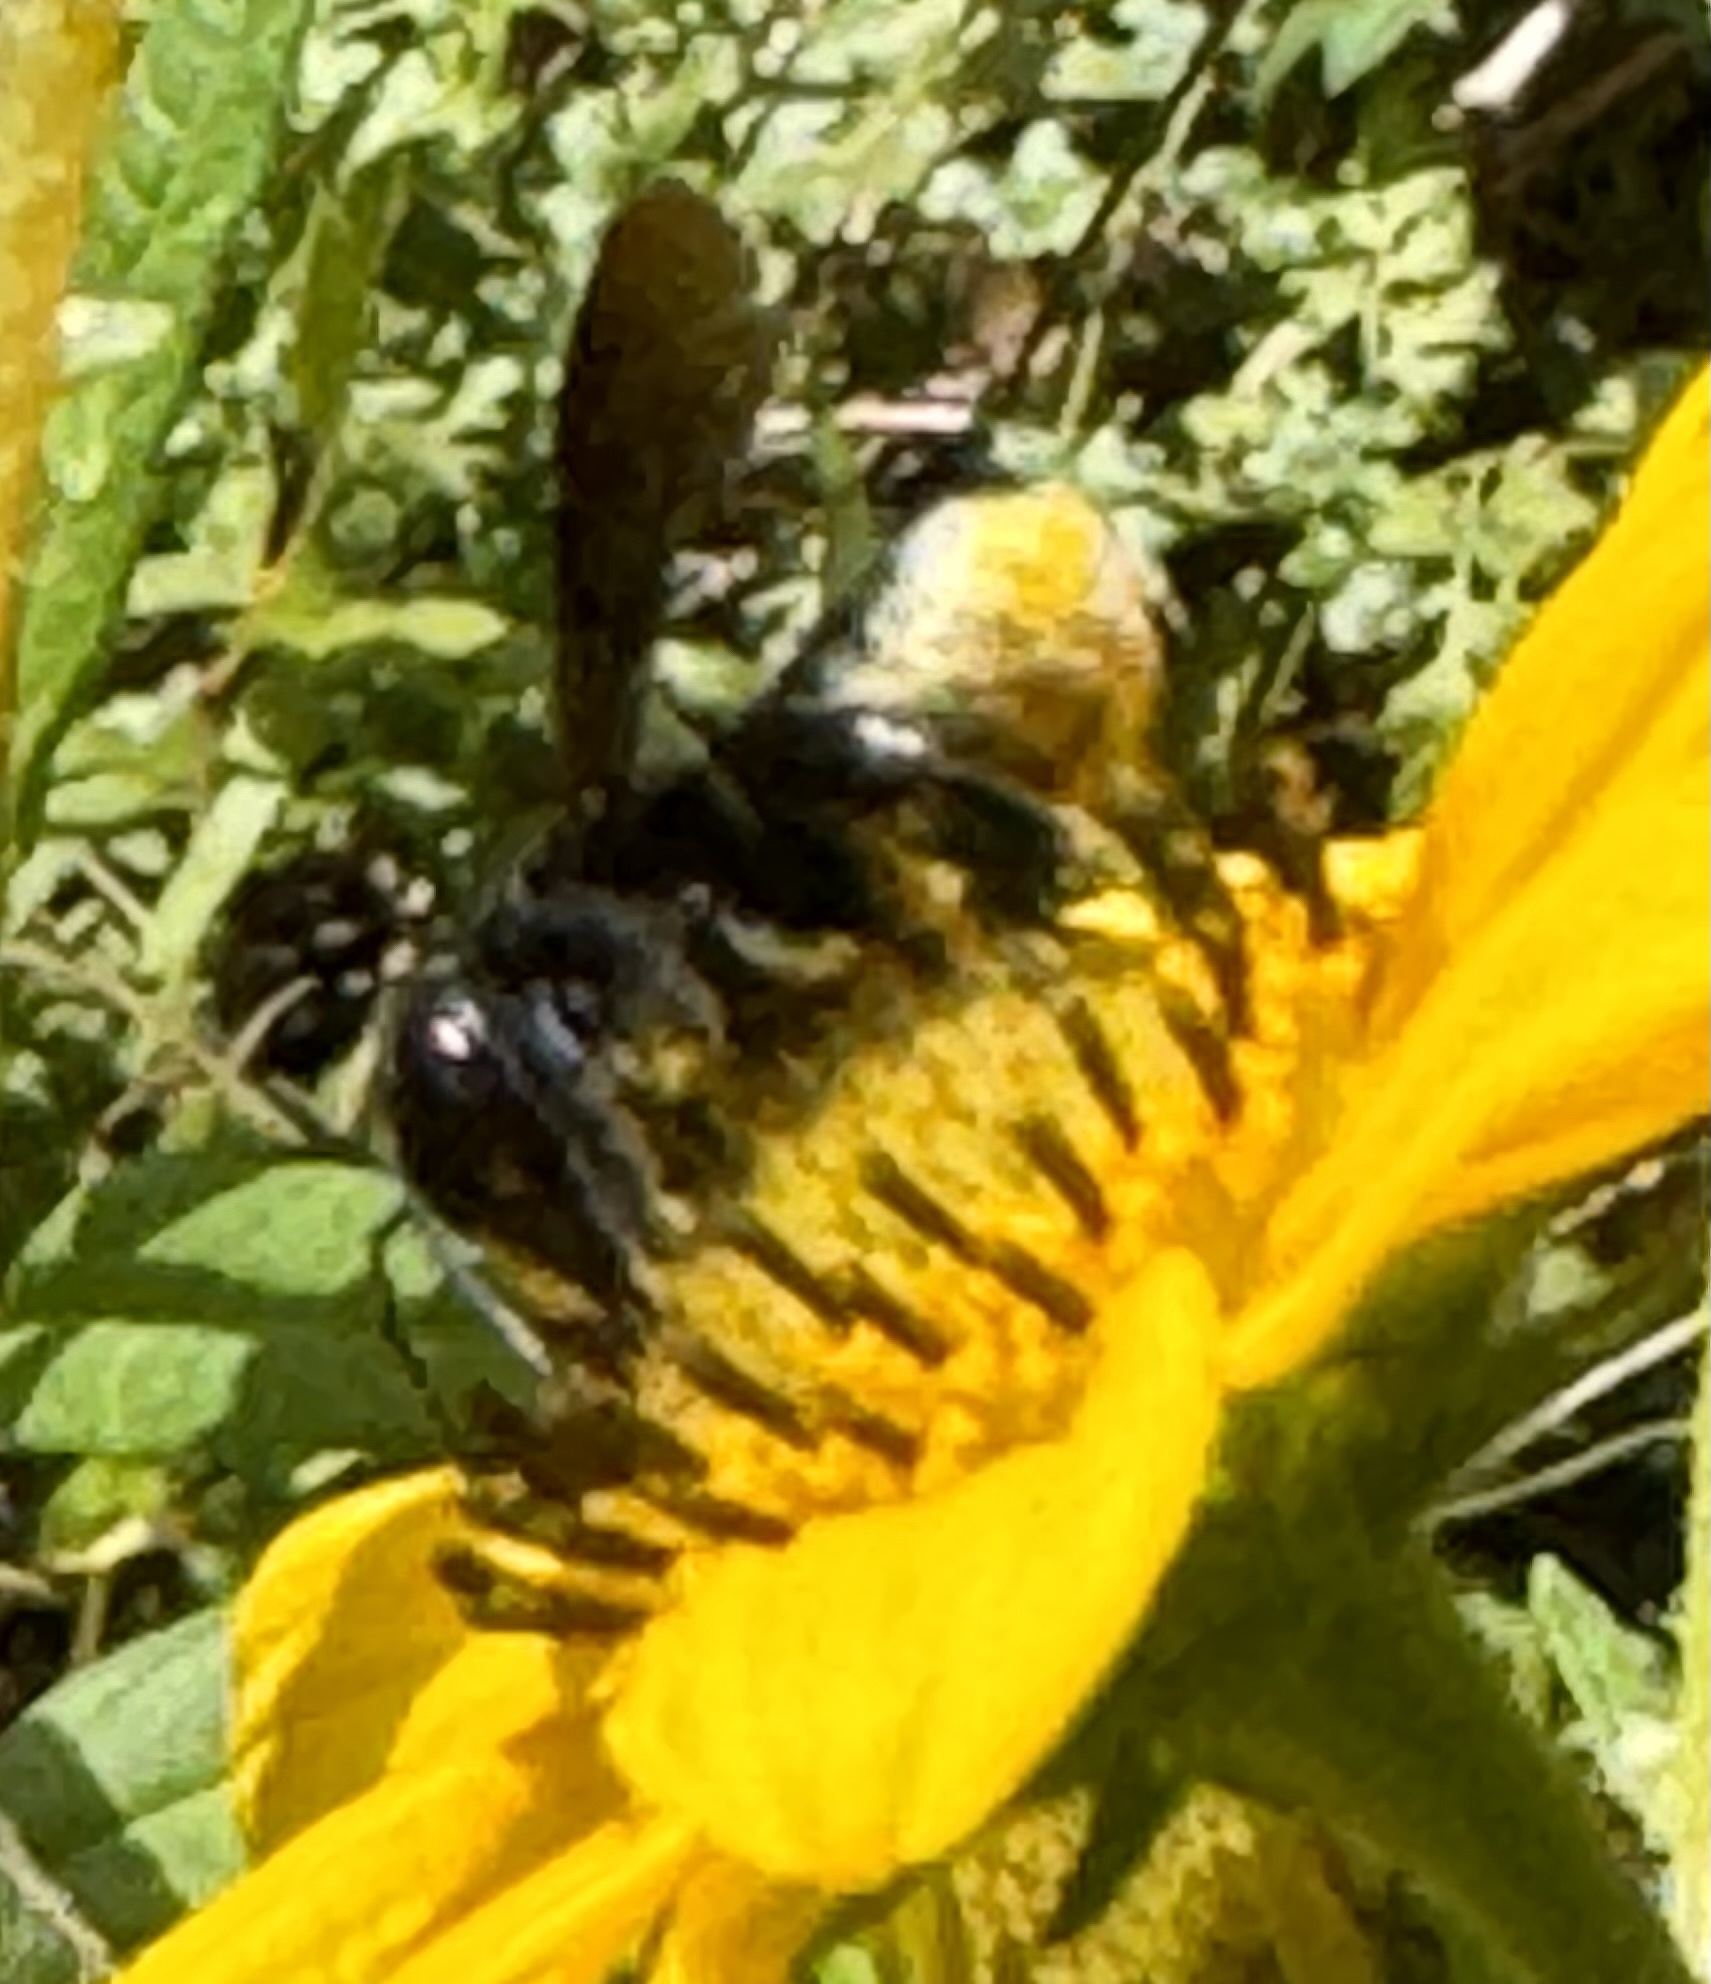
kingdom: Animalia
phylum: Arthropoda
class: Insecta
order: Hymenoptera
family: Megachilidae
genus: Megachile
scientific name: Megachile xylocopoides
